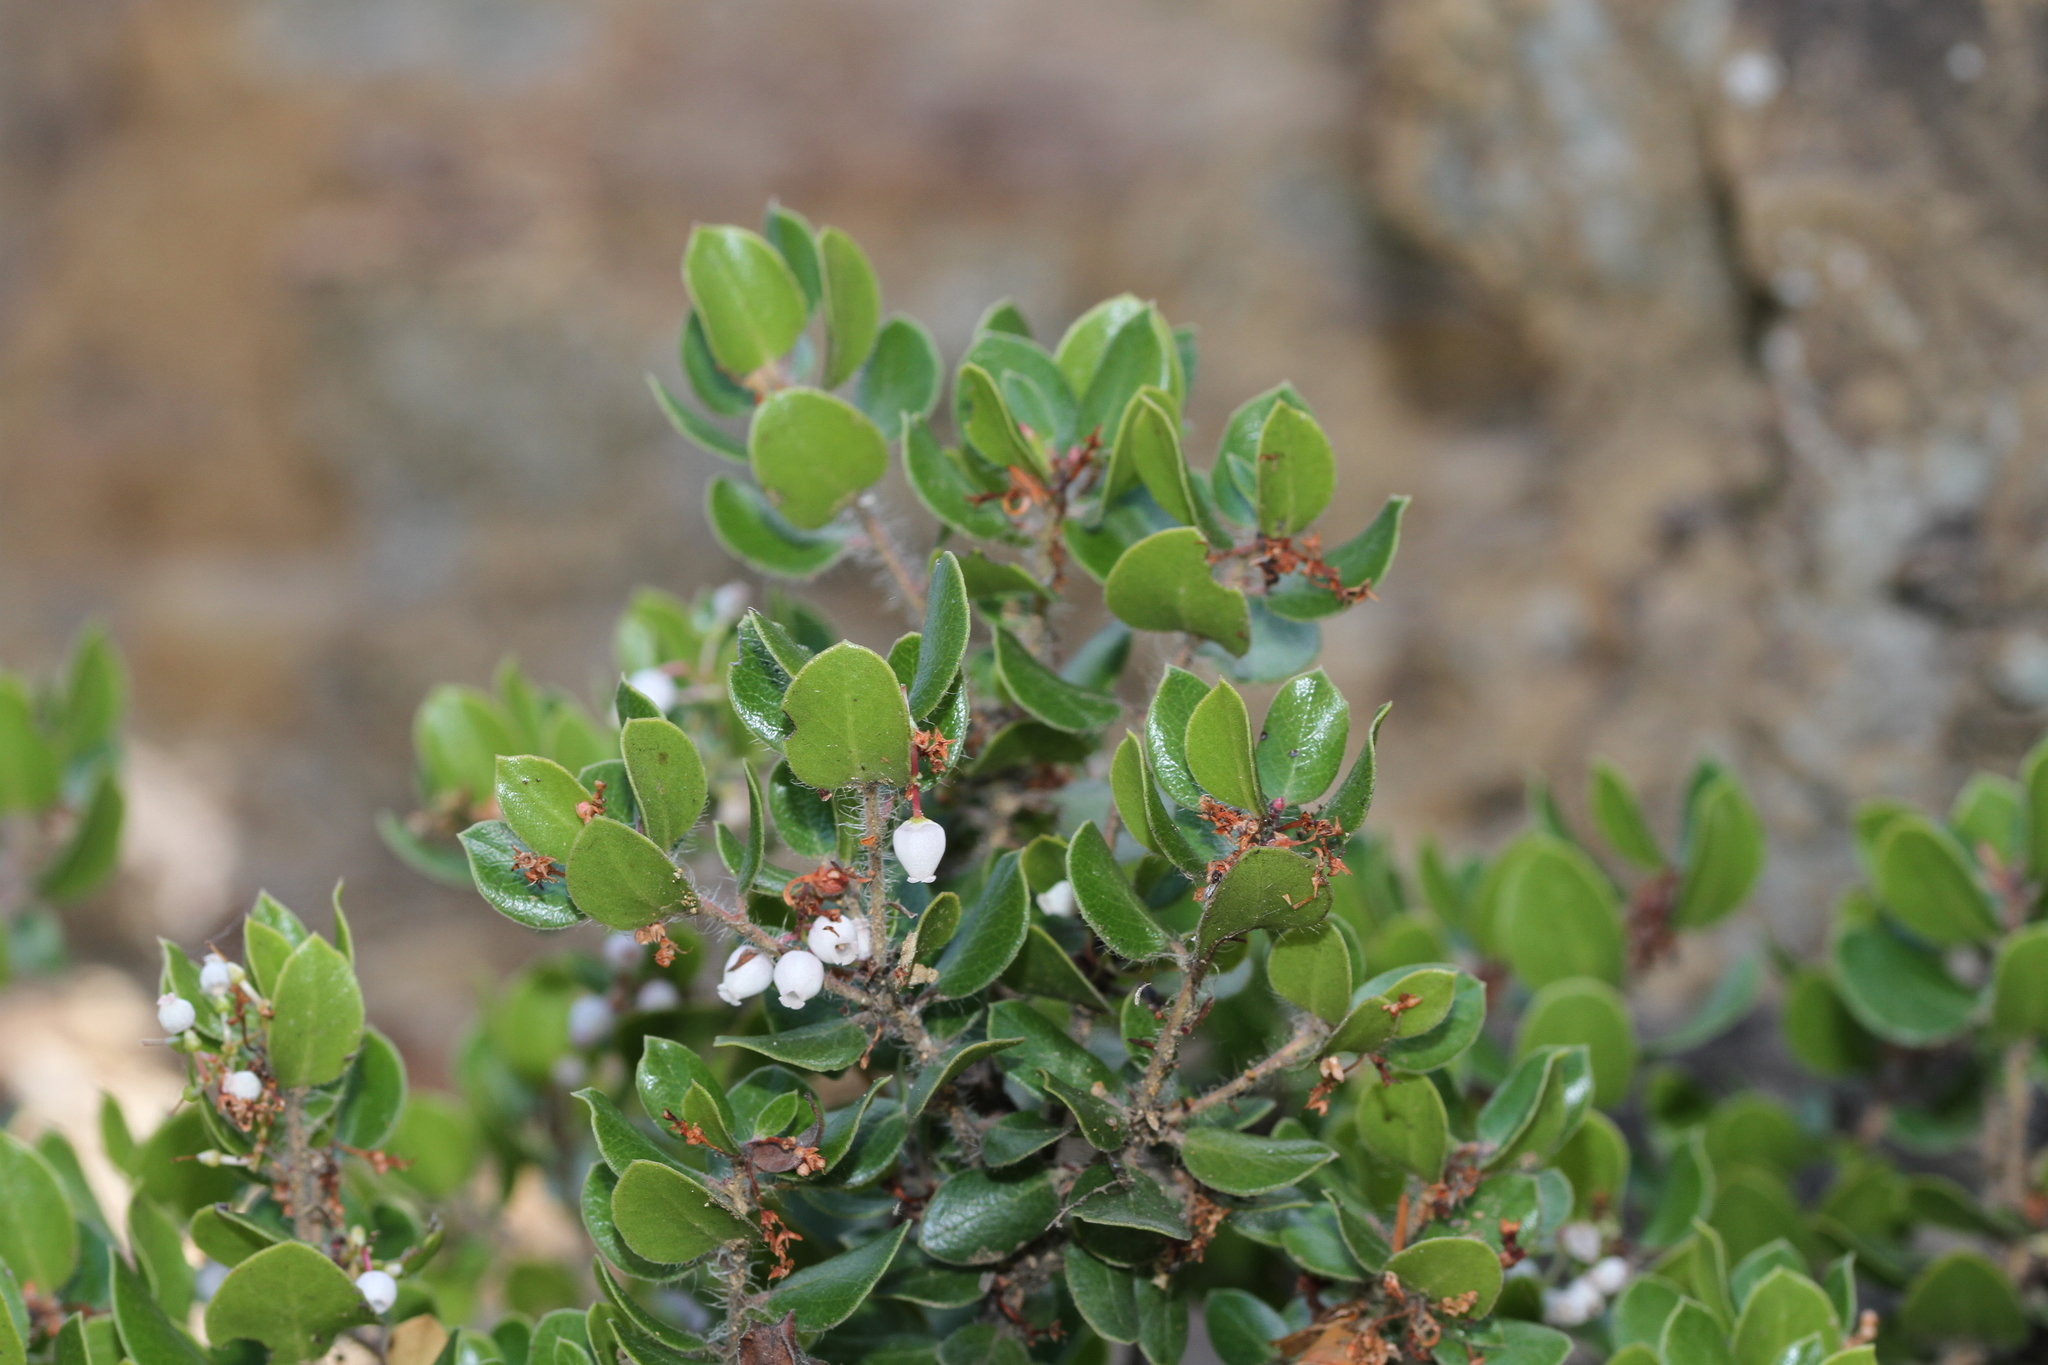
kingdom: Plantae
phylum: Tracheophyta
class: Magnoliopsida
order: Ericales
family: Ericaceae
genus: Arctostaphylos
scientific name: Arctostaphylos nummularia
